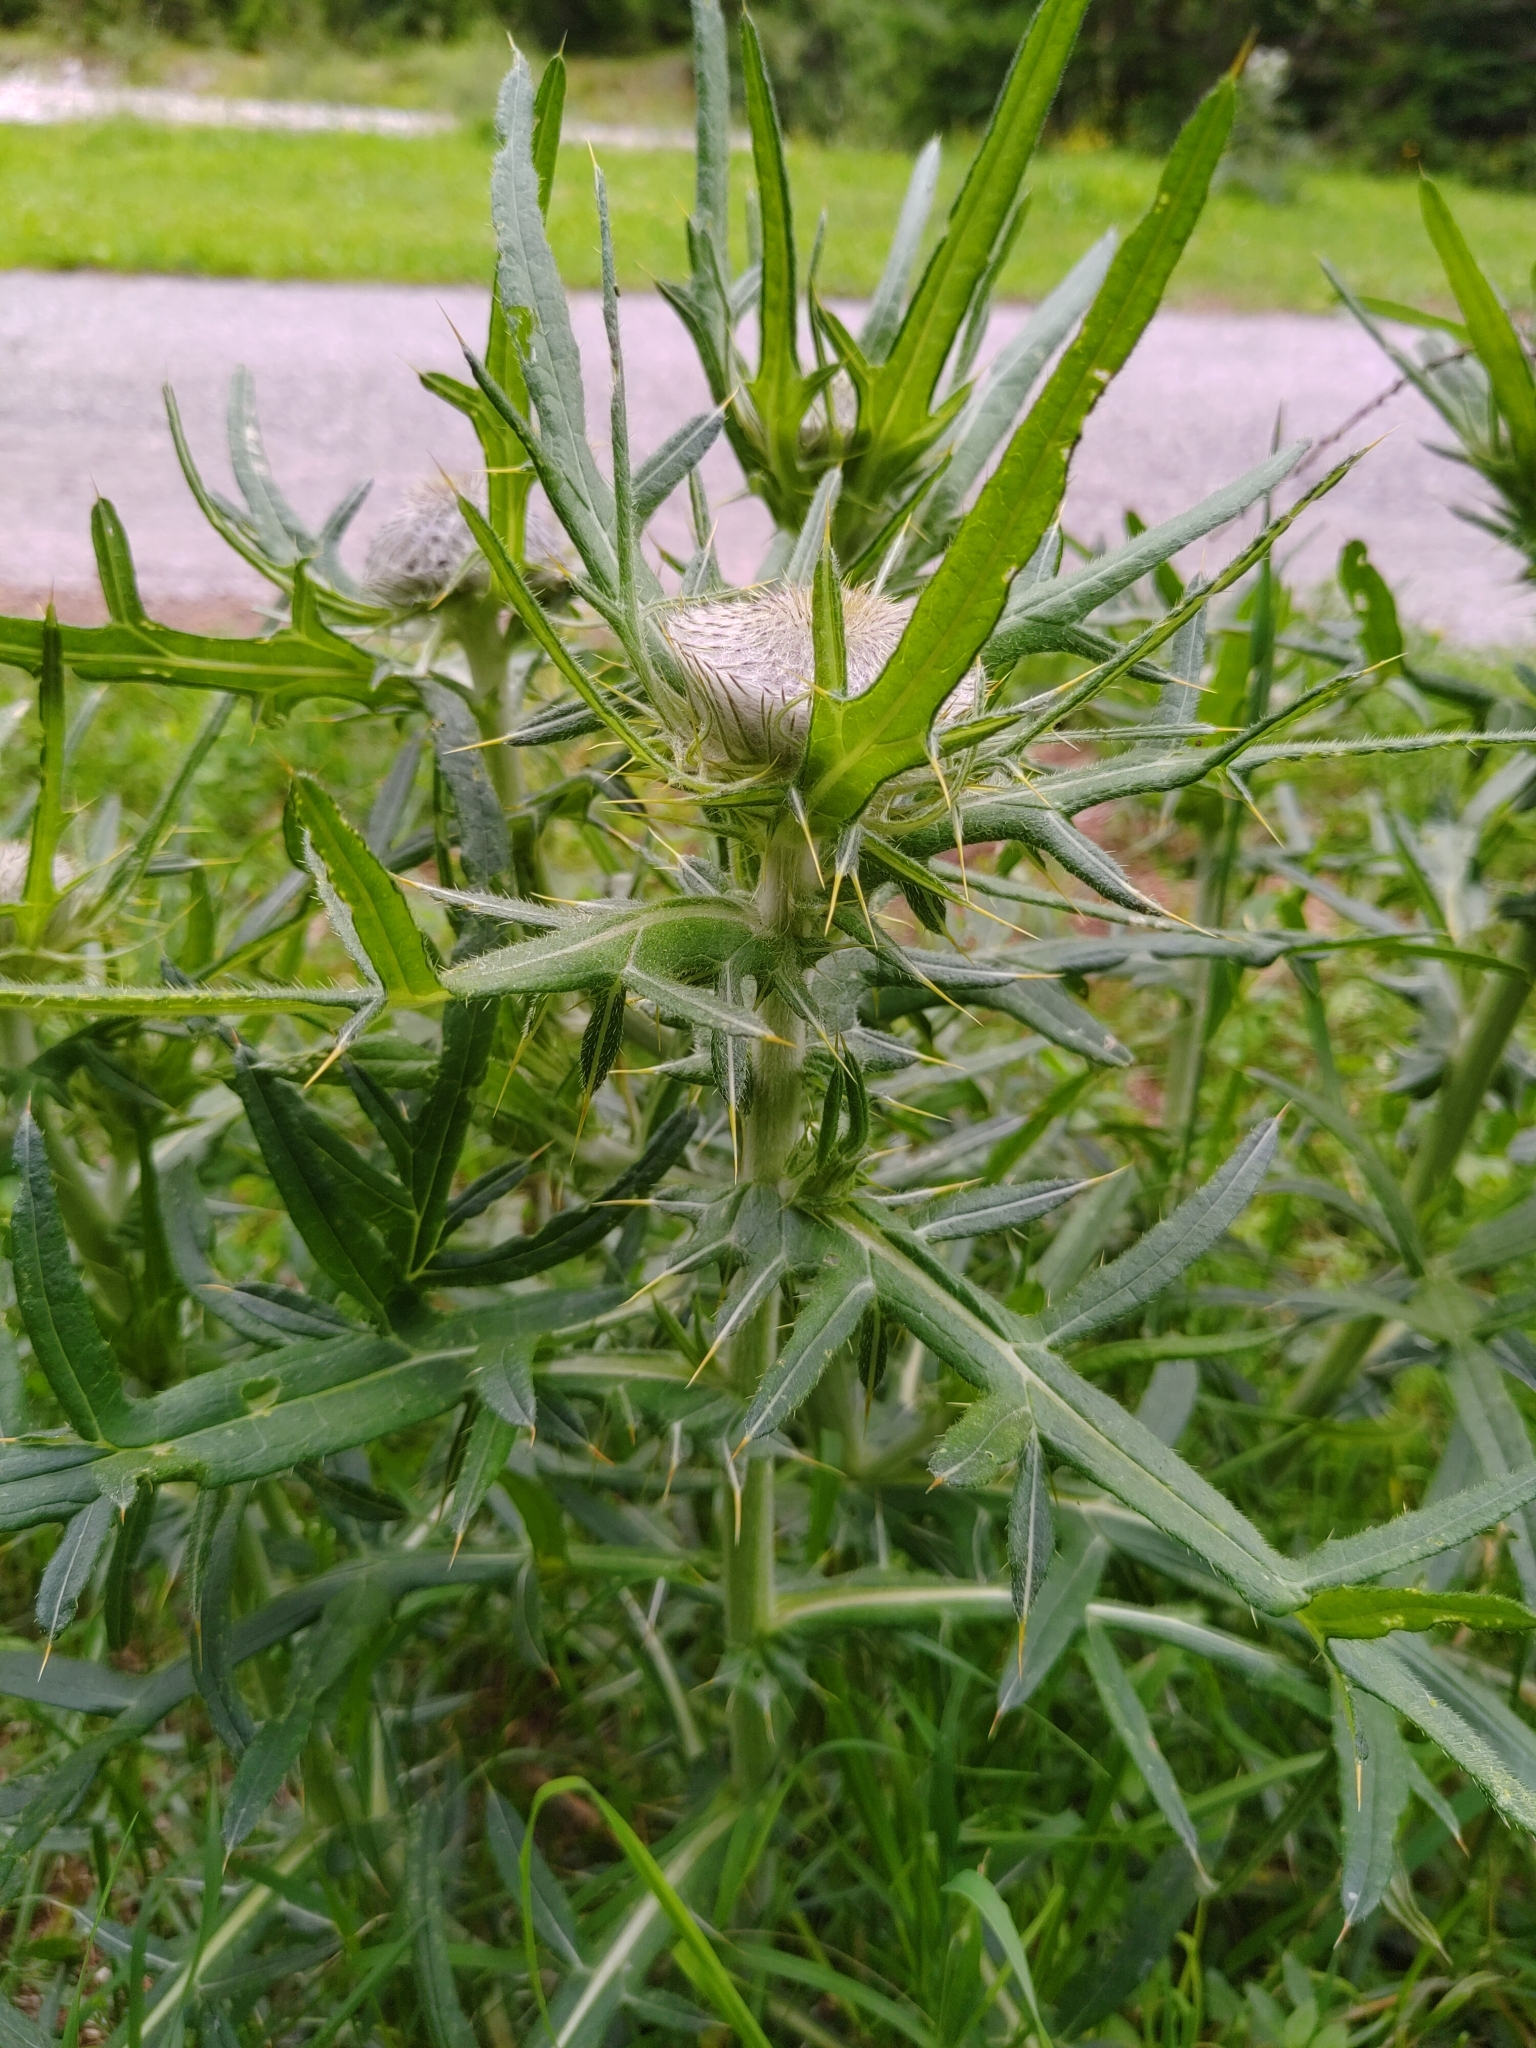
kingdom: Plantae
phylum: Tracheophyta
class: Magnoliopsida
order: Asterales
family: Asteraceae
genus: Lophiolepis
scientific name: Lophiolepis eriophora
